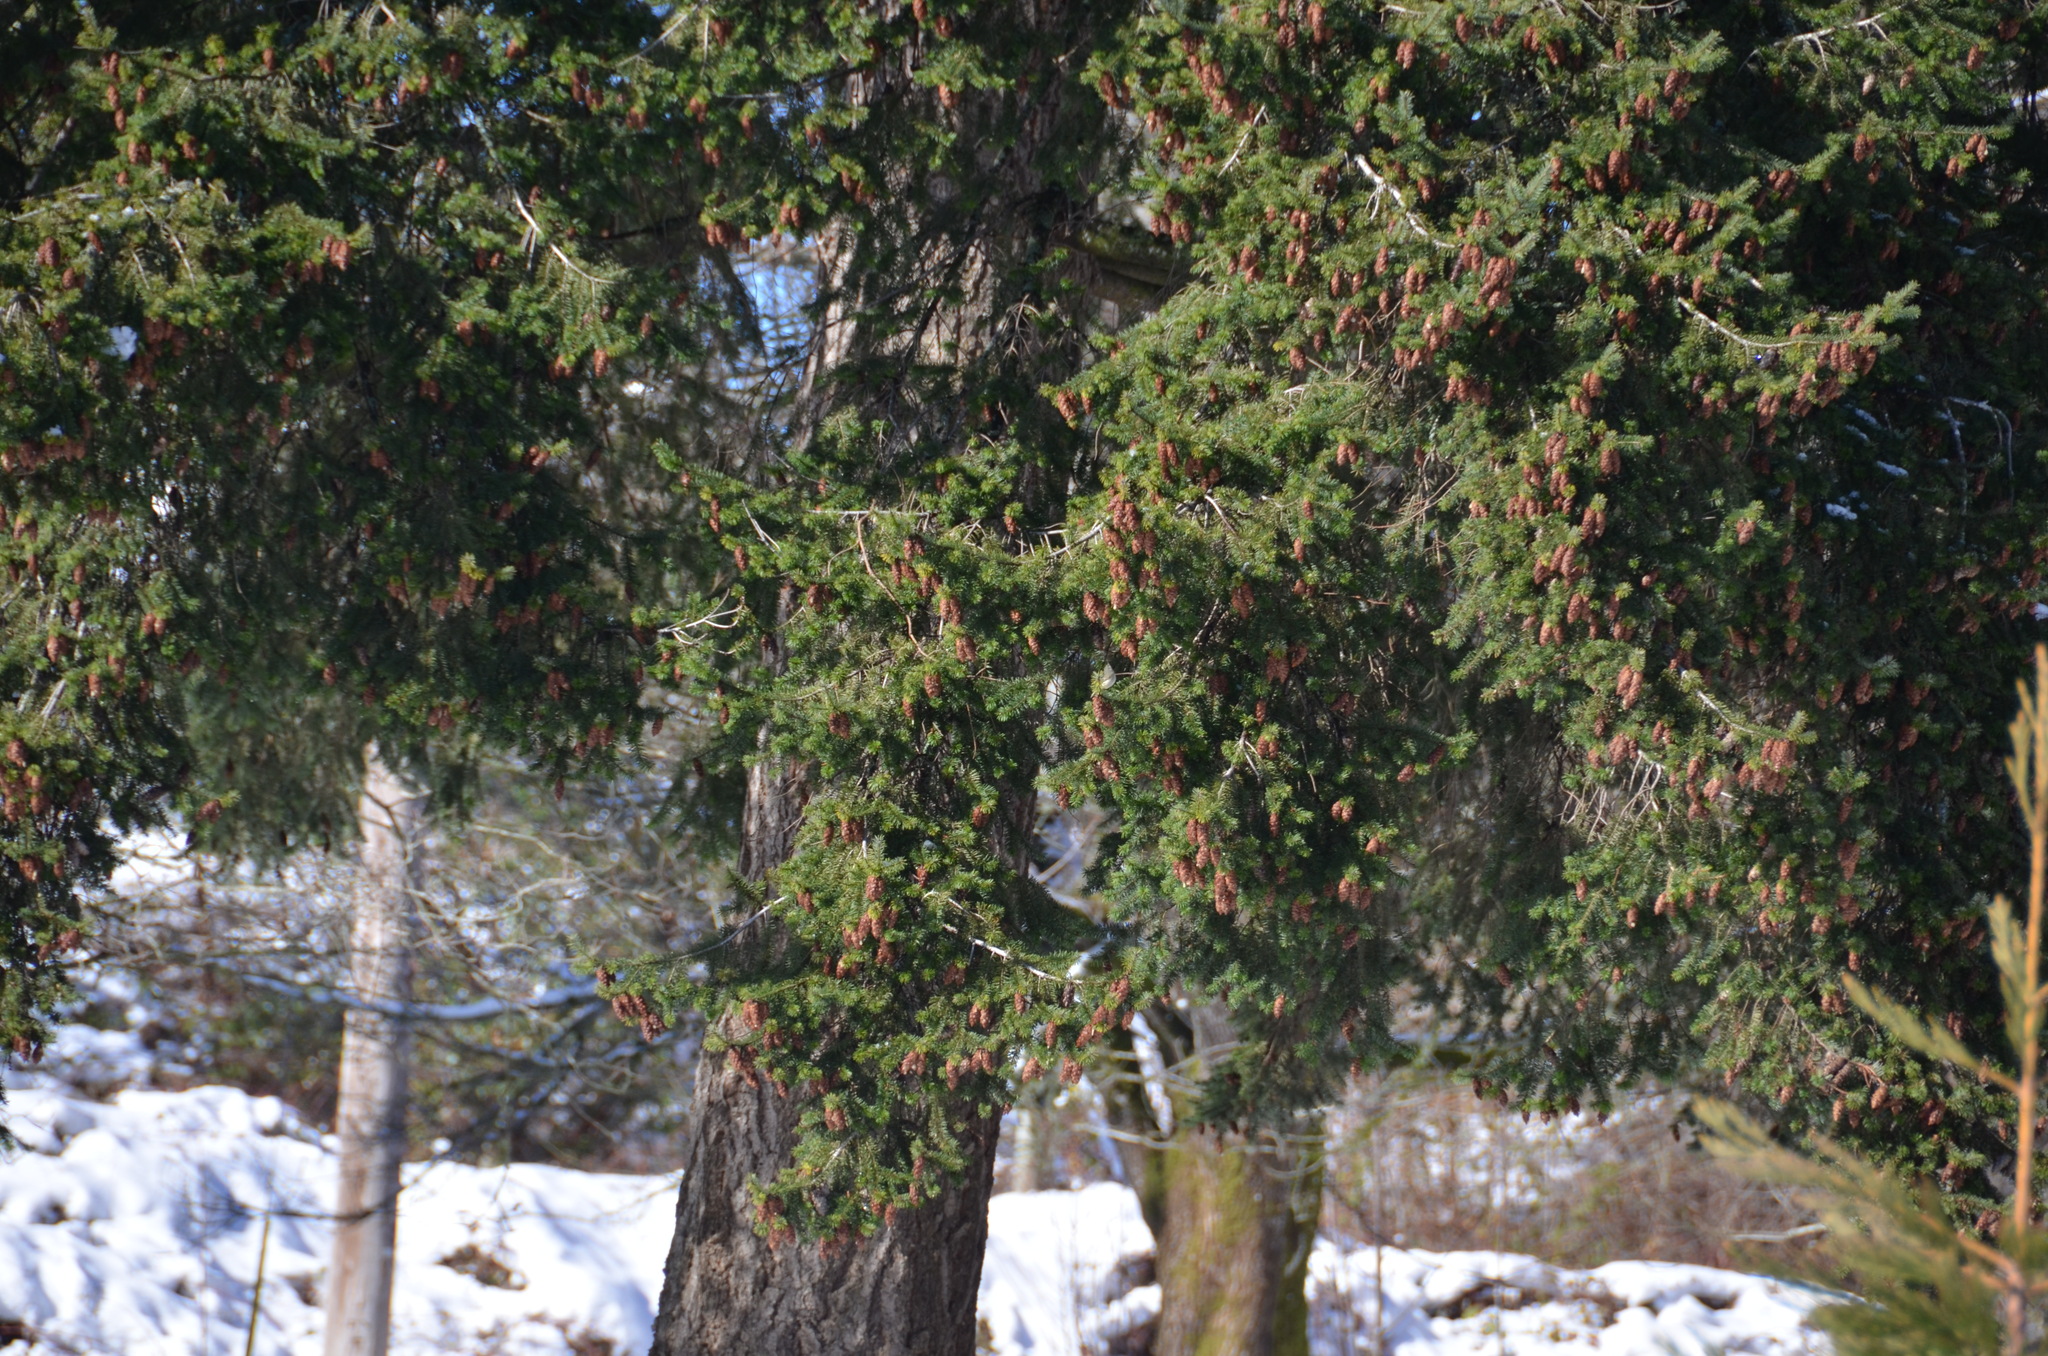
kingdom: Animalia
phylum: Chordata
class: Aves
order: Passeriformes
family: Regulidae
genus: Regulus
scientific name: Regulus calendula
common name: Ruby-crowned kinglet
